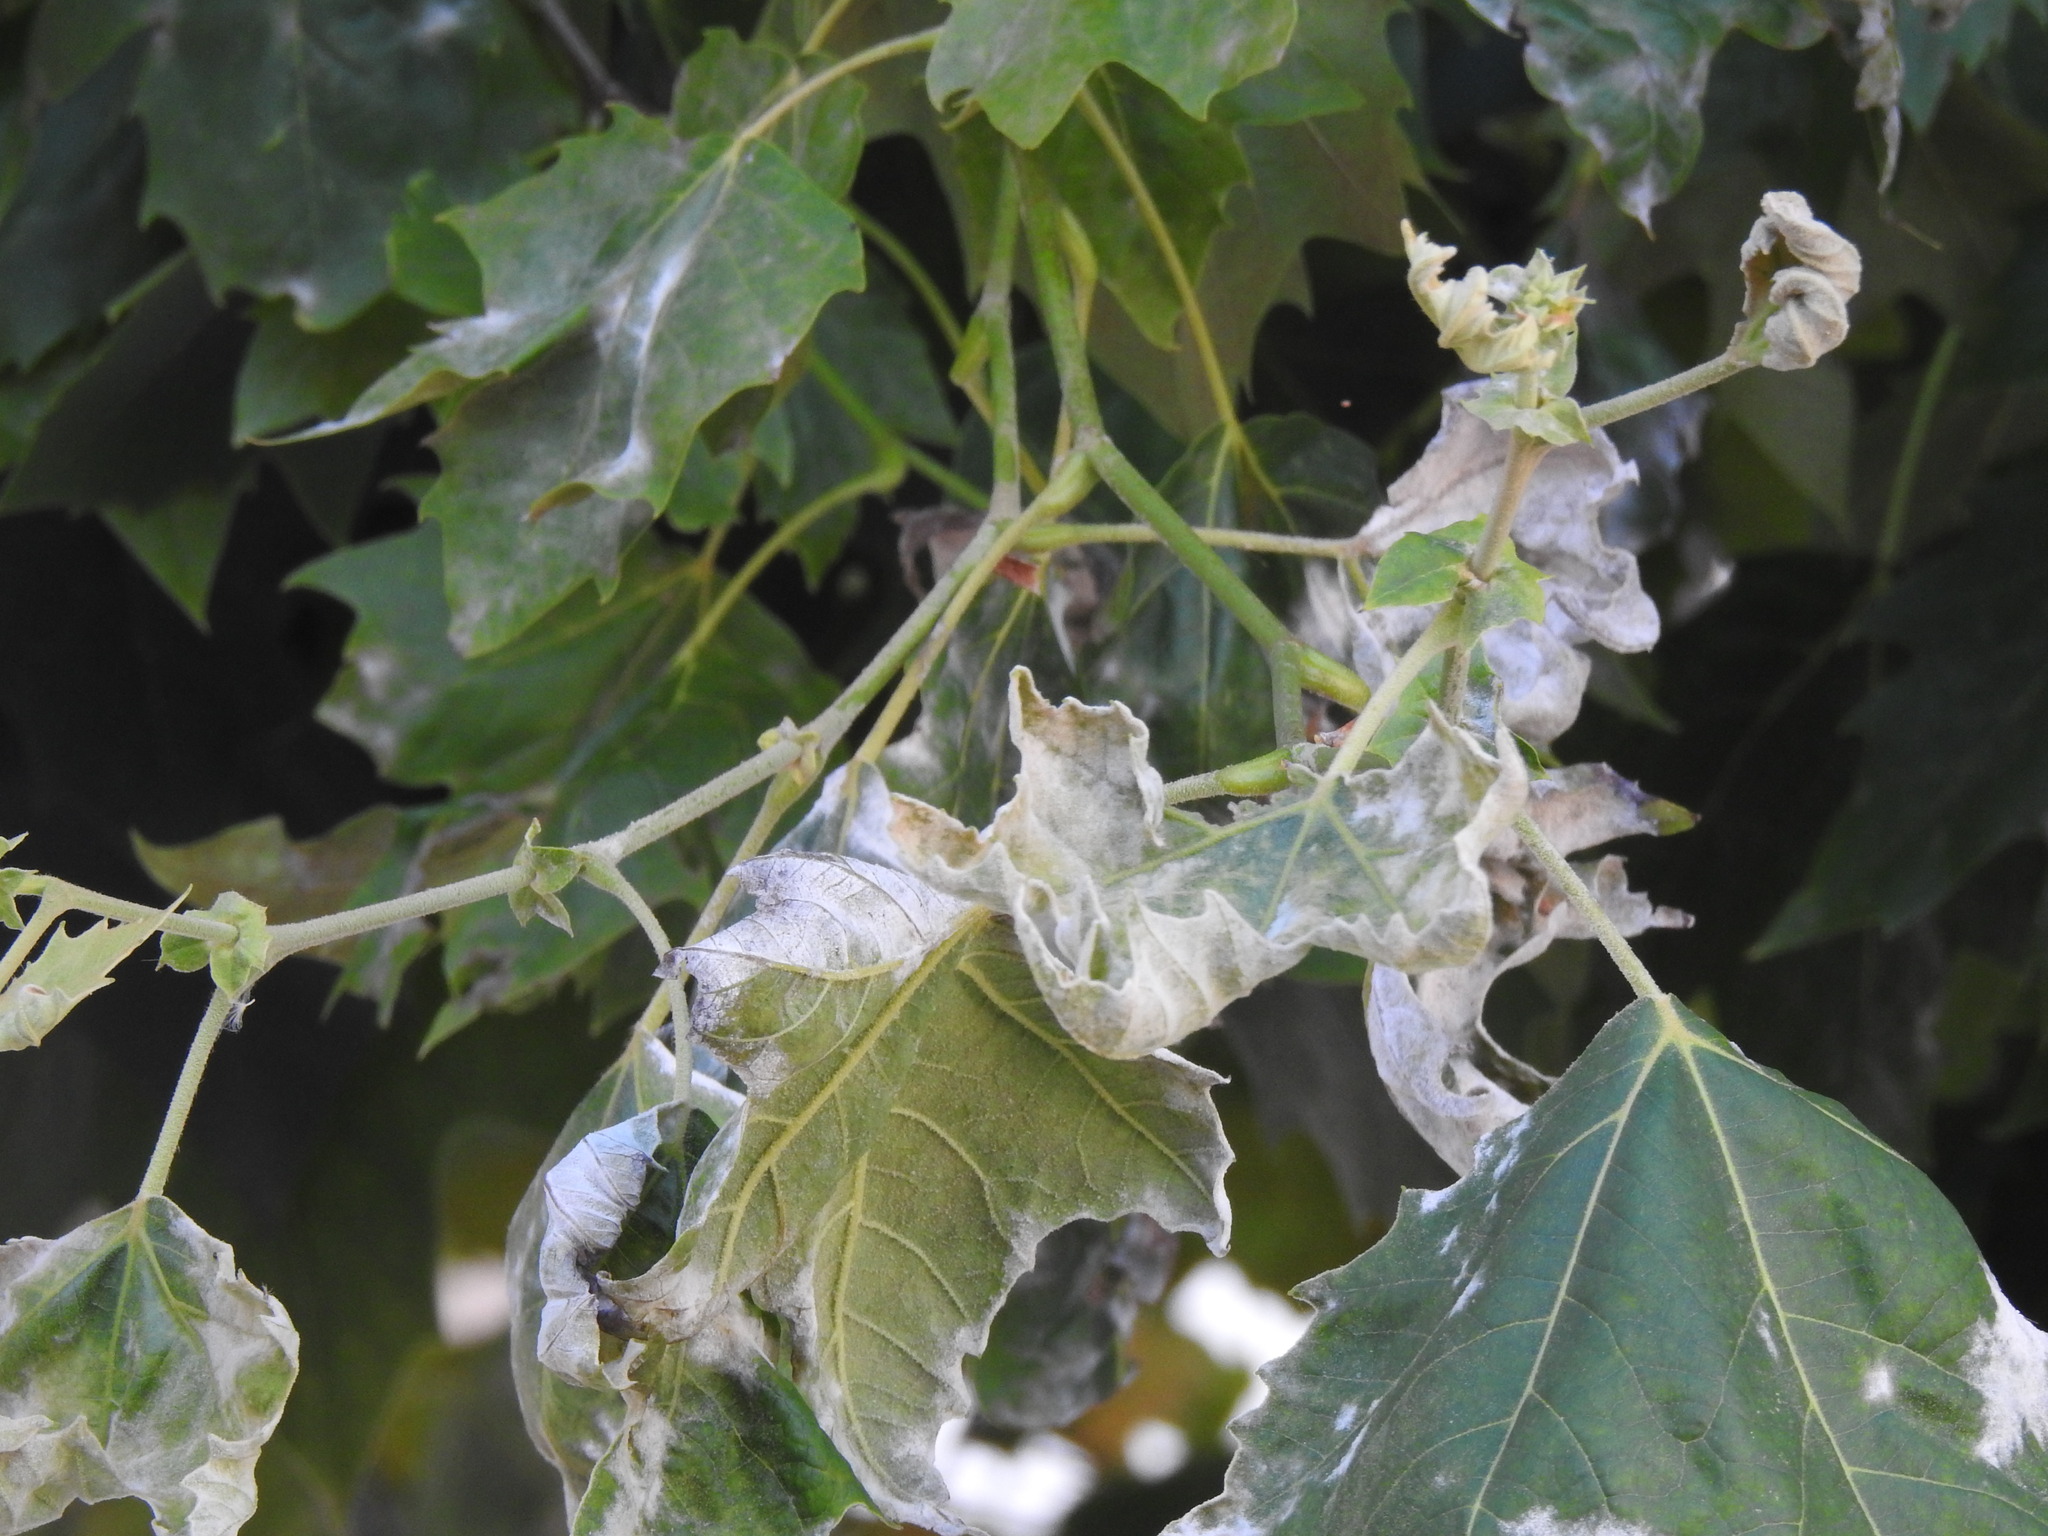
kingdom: Fungi
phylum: Ascomycota
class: Leotiomycetes
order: Helotiales
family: Erysiphaceae
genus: Erysiphe
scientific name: Erysiphe platani
